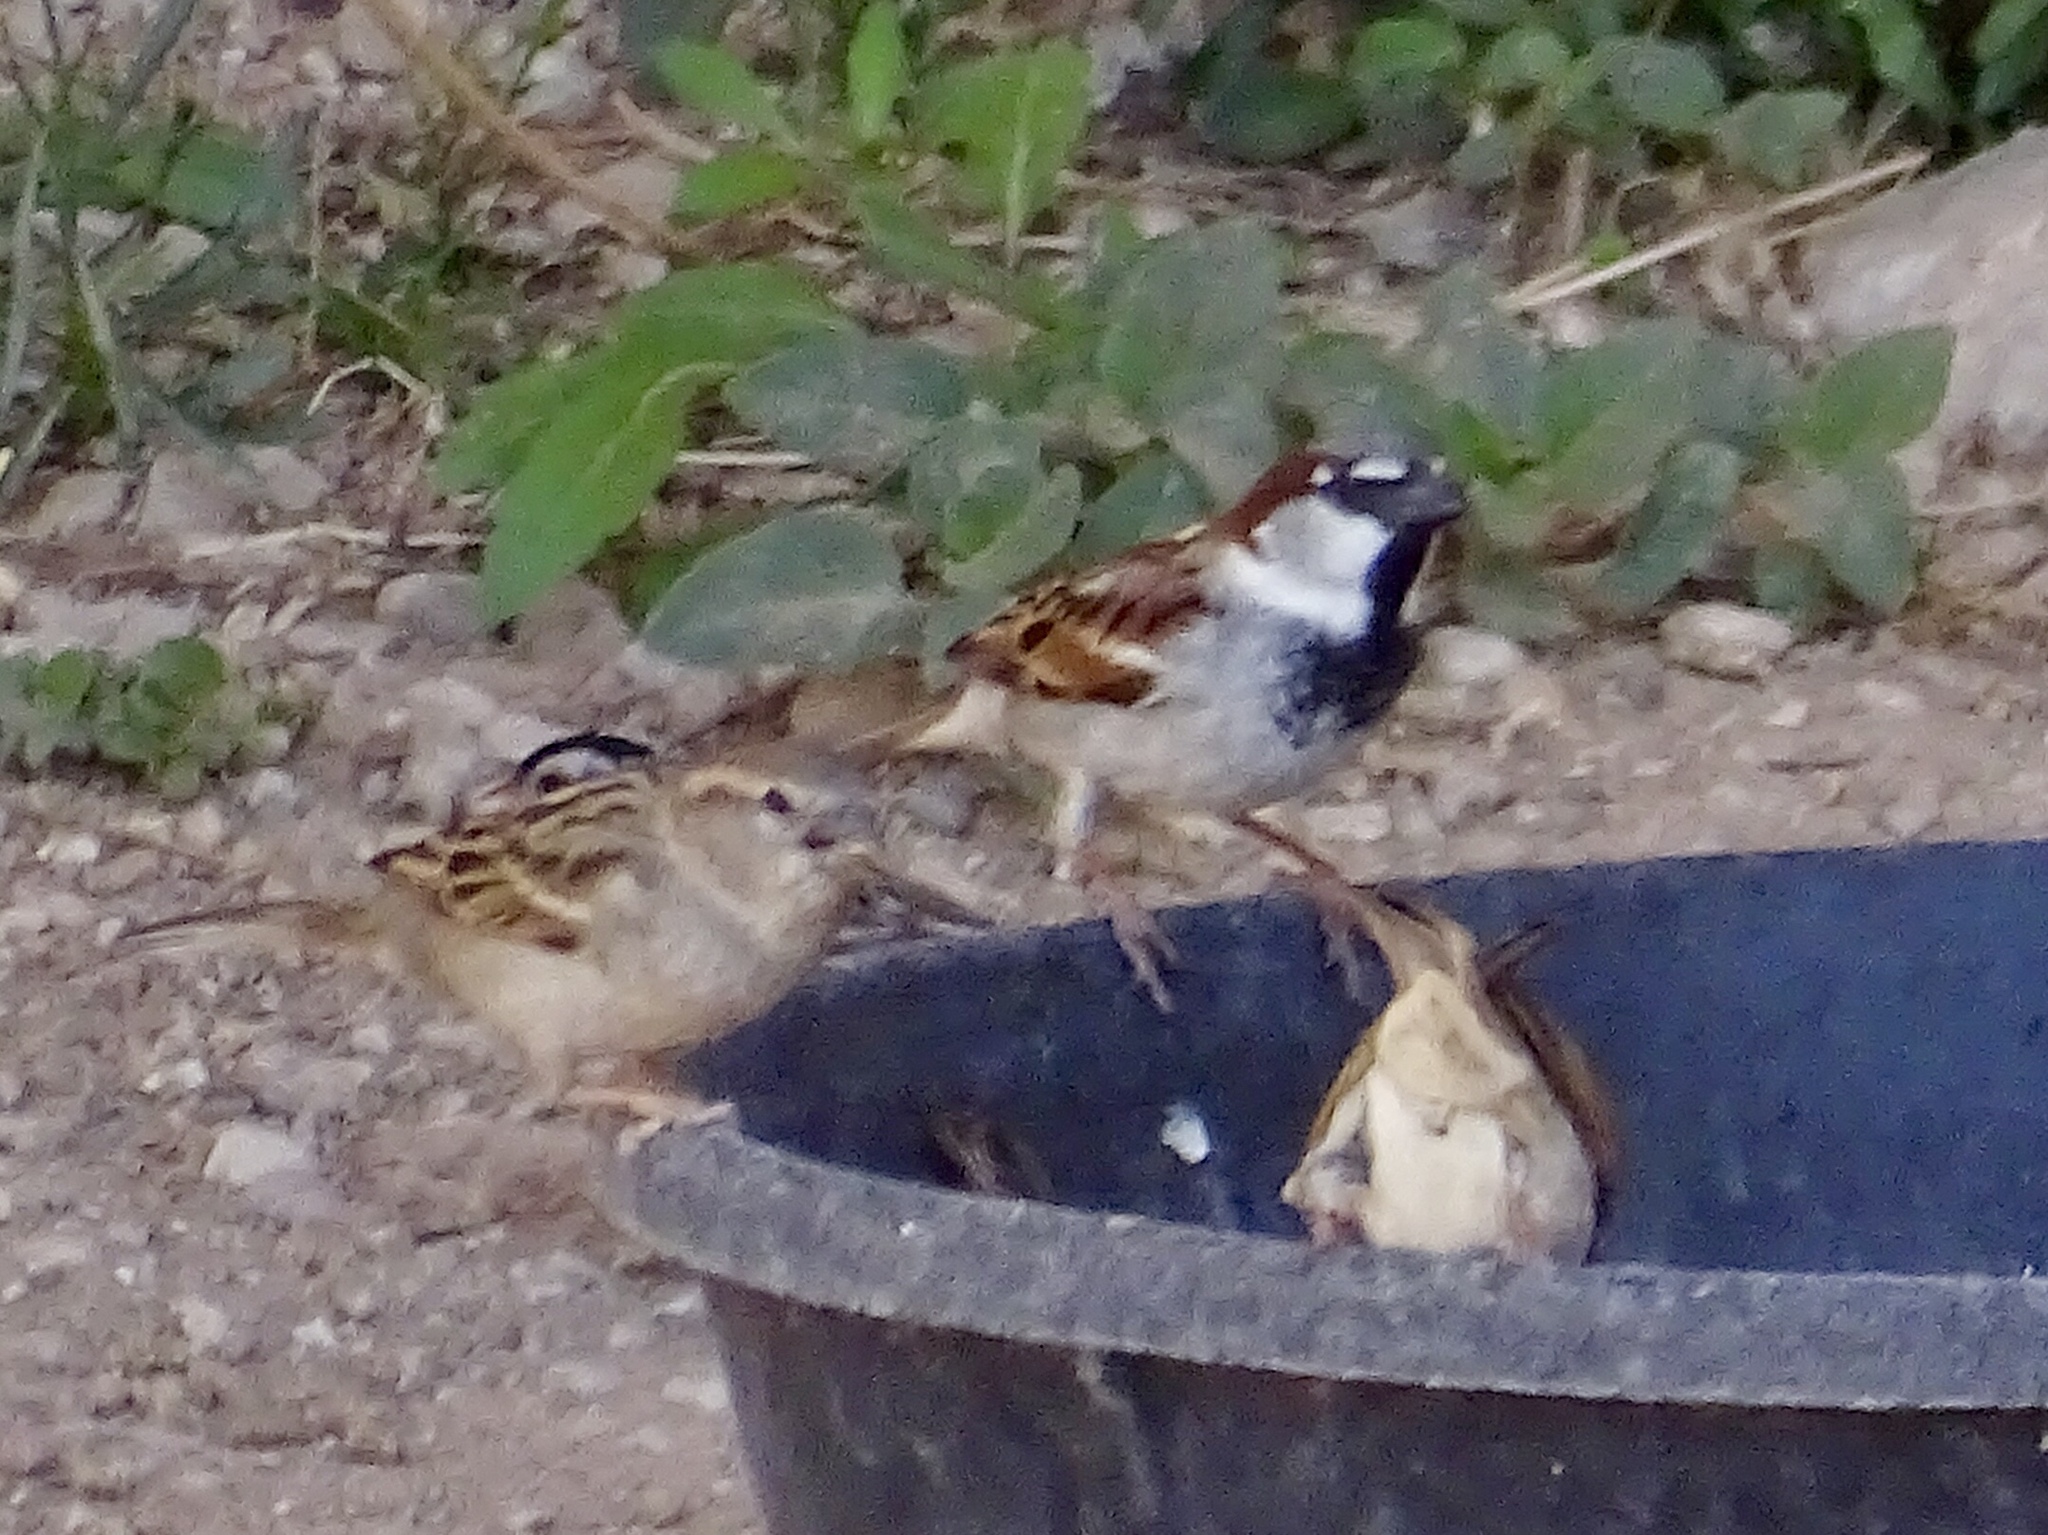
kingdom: Animalia
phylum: Chordata
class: Aves
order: Passeriformes
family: Passeridae
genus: Passer
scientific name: Passer domesticus
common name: House sparrow
